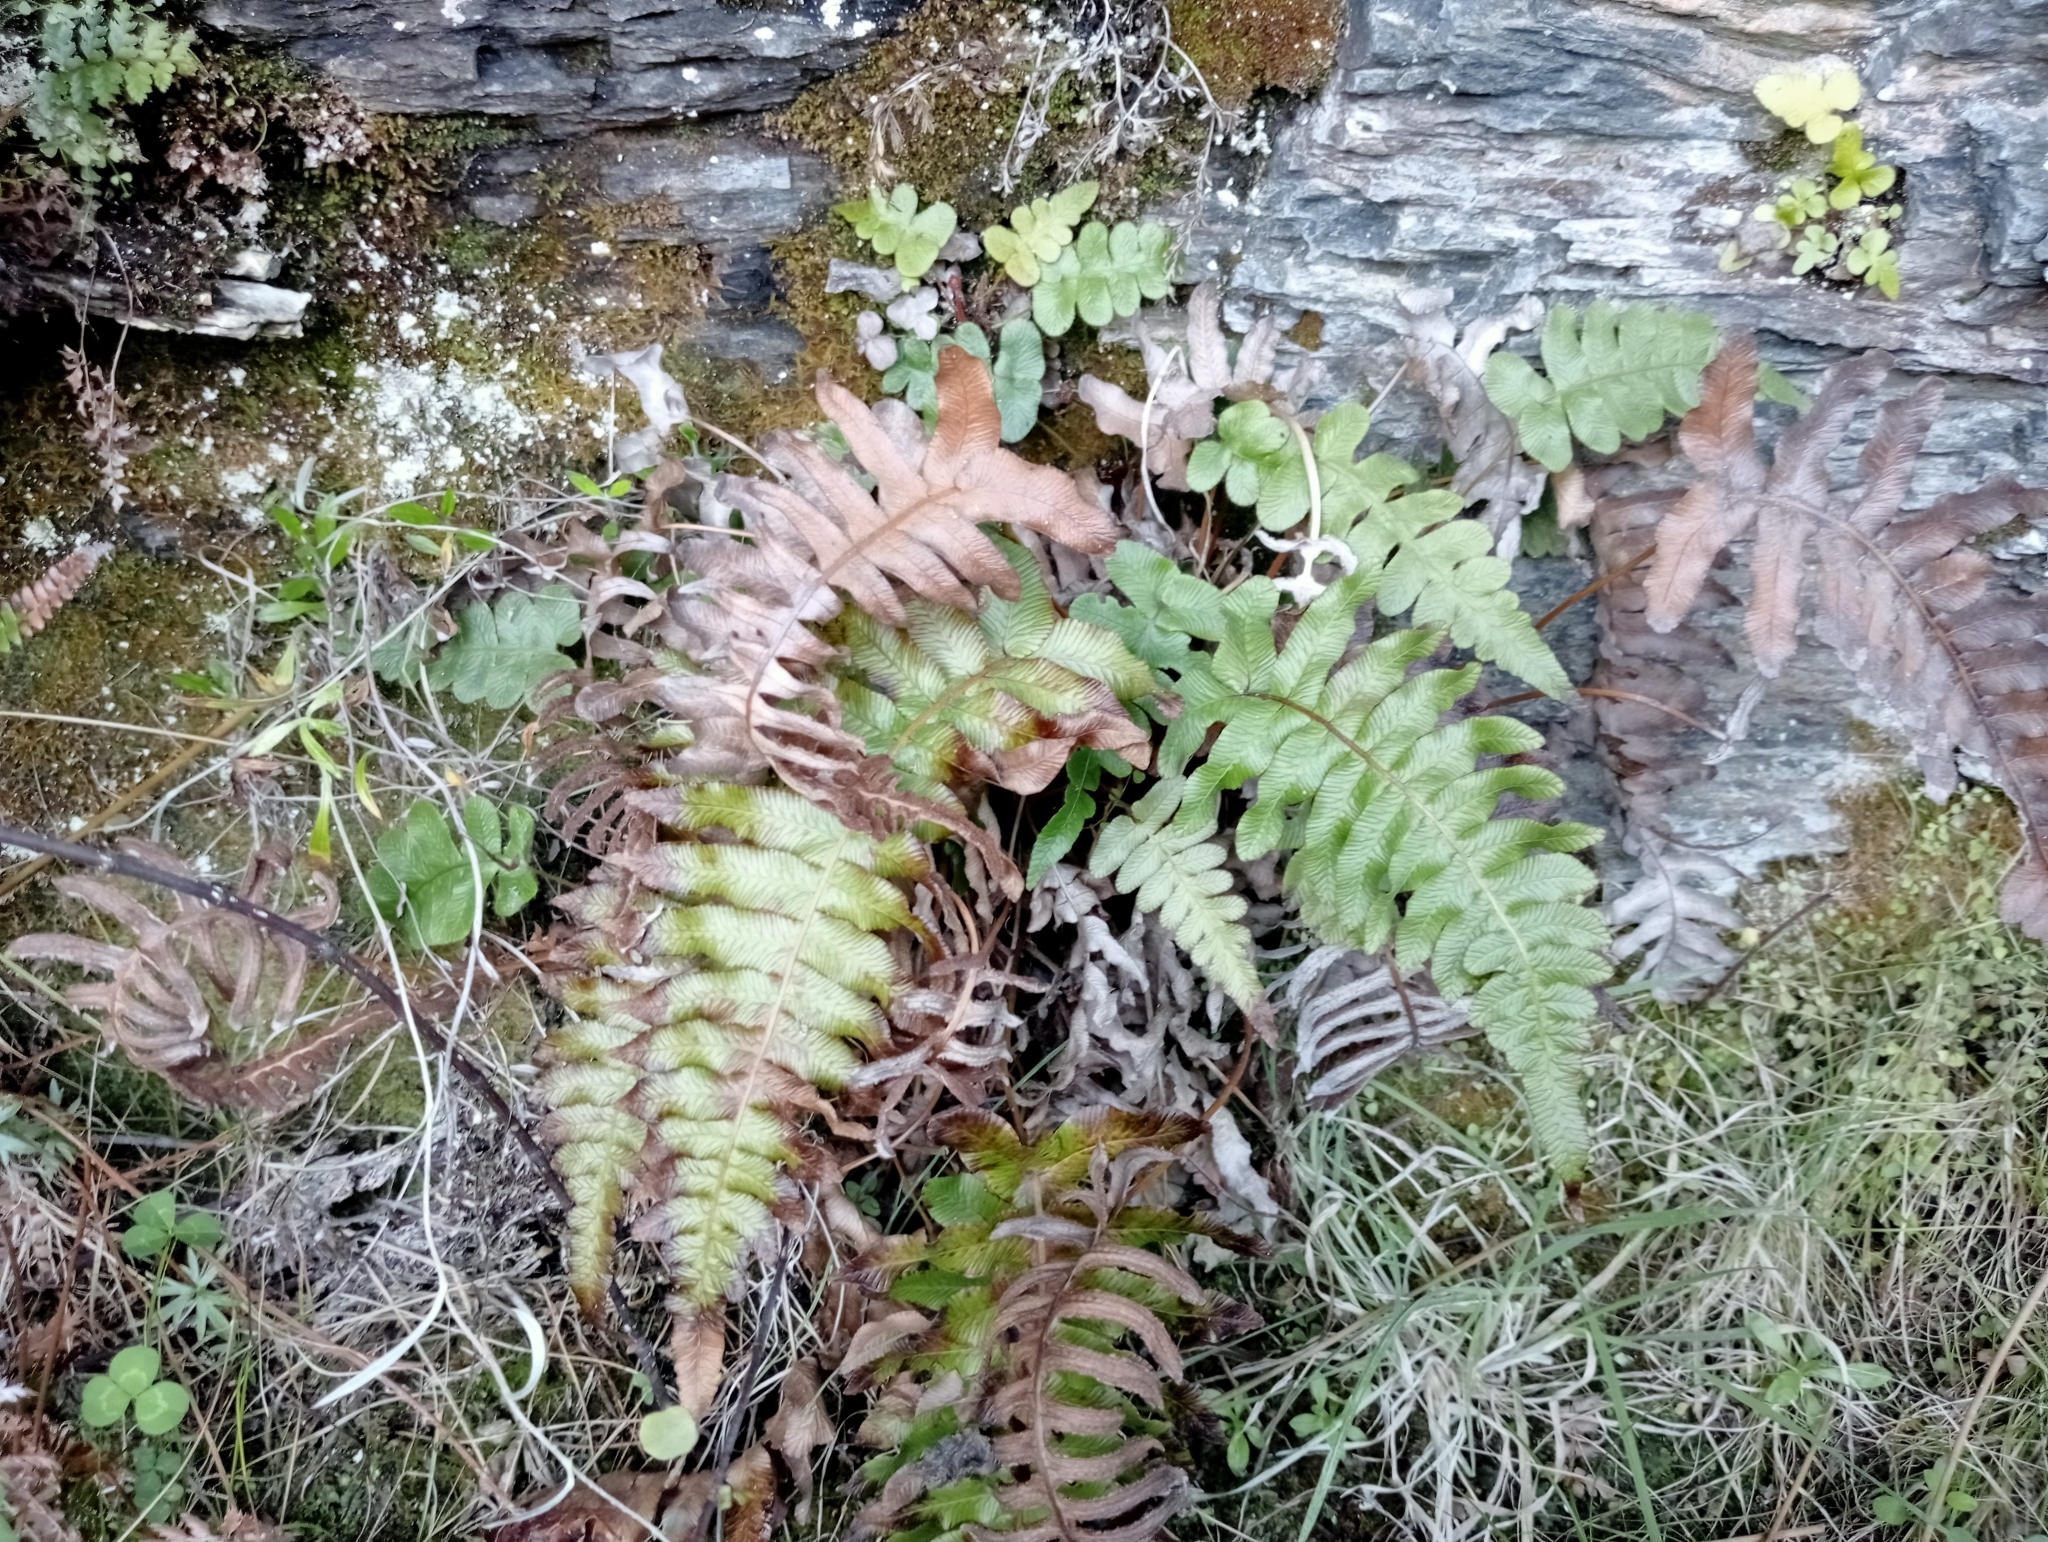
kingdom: Plantae
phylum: Tracheophyta
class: Polypodiopsida
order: Polypodiales
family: Blechnaceae
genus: Cranfillia
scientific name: Cranfillia deltoides
